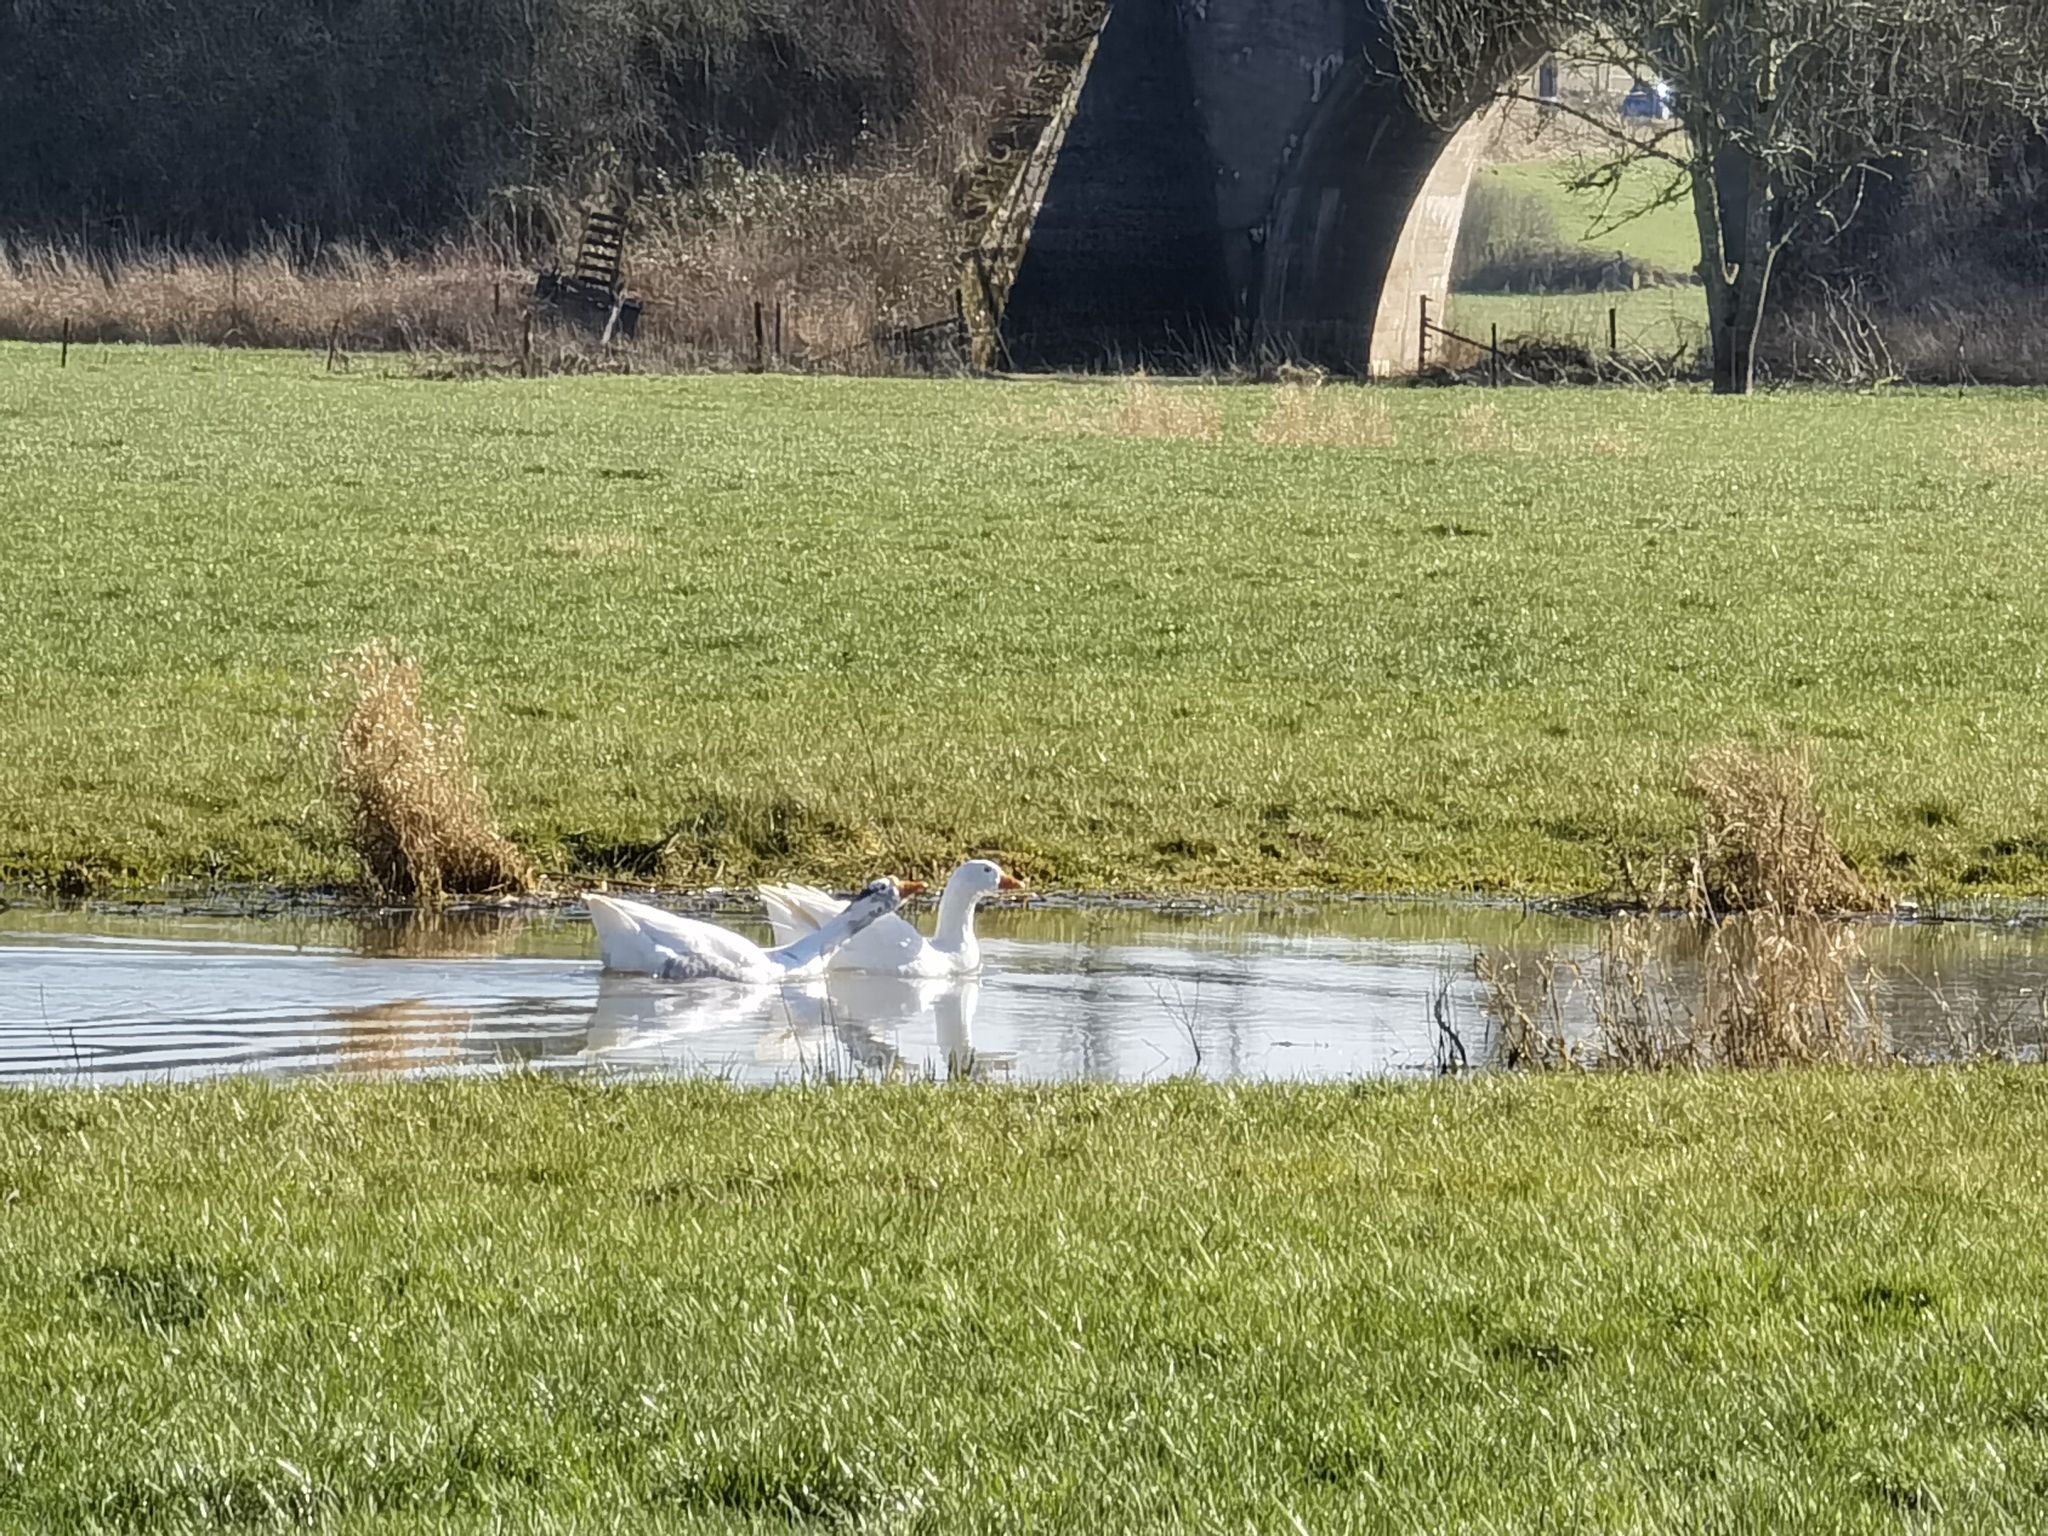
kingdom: Animalia
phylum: Chordata
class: Aves
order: Anseriformes
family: Anatidae
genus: Anser
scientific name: Anser anser
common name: Greylag goose
